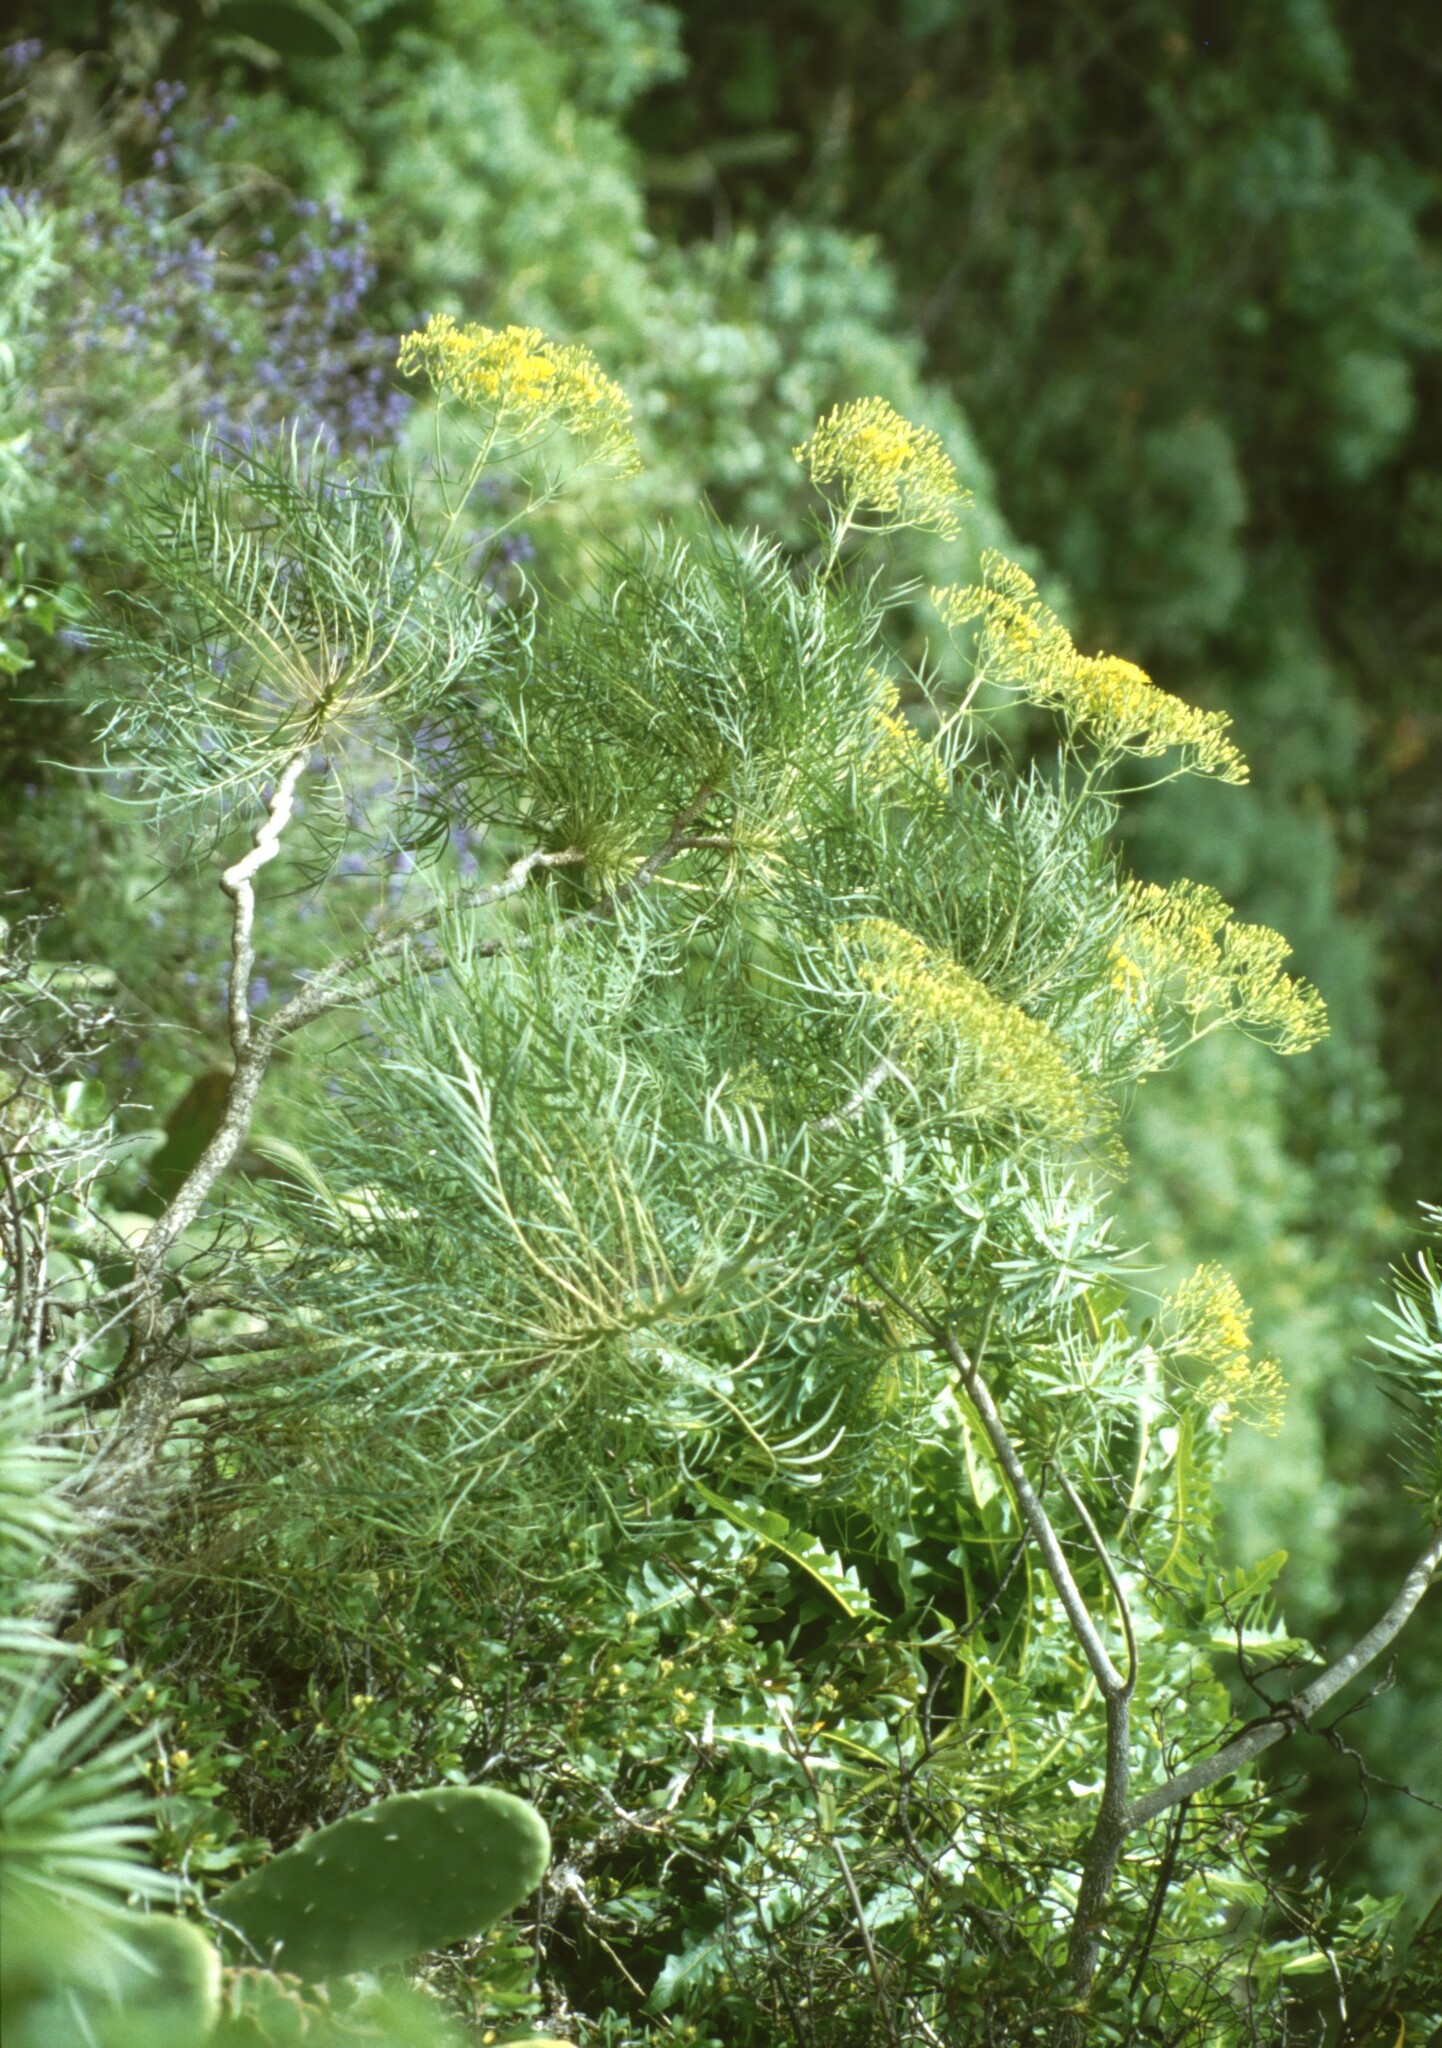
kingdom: Plantae
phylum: Tracheophyta
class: Magnoliopsida
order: Asterales
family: Asteraceae
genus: Sonchus
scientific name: Sonchus arboreus
